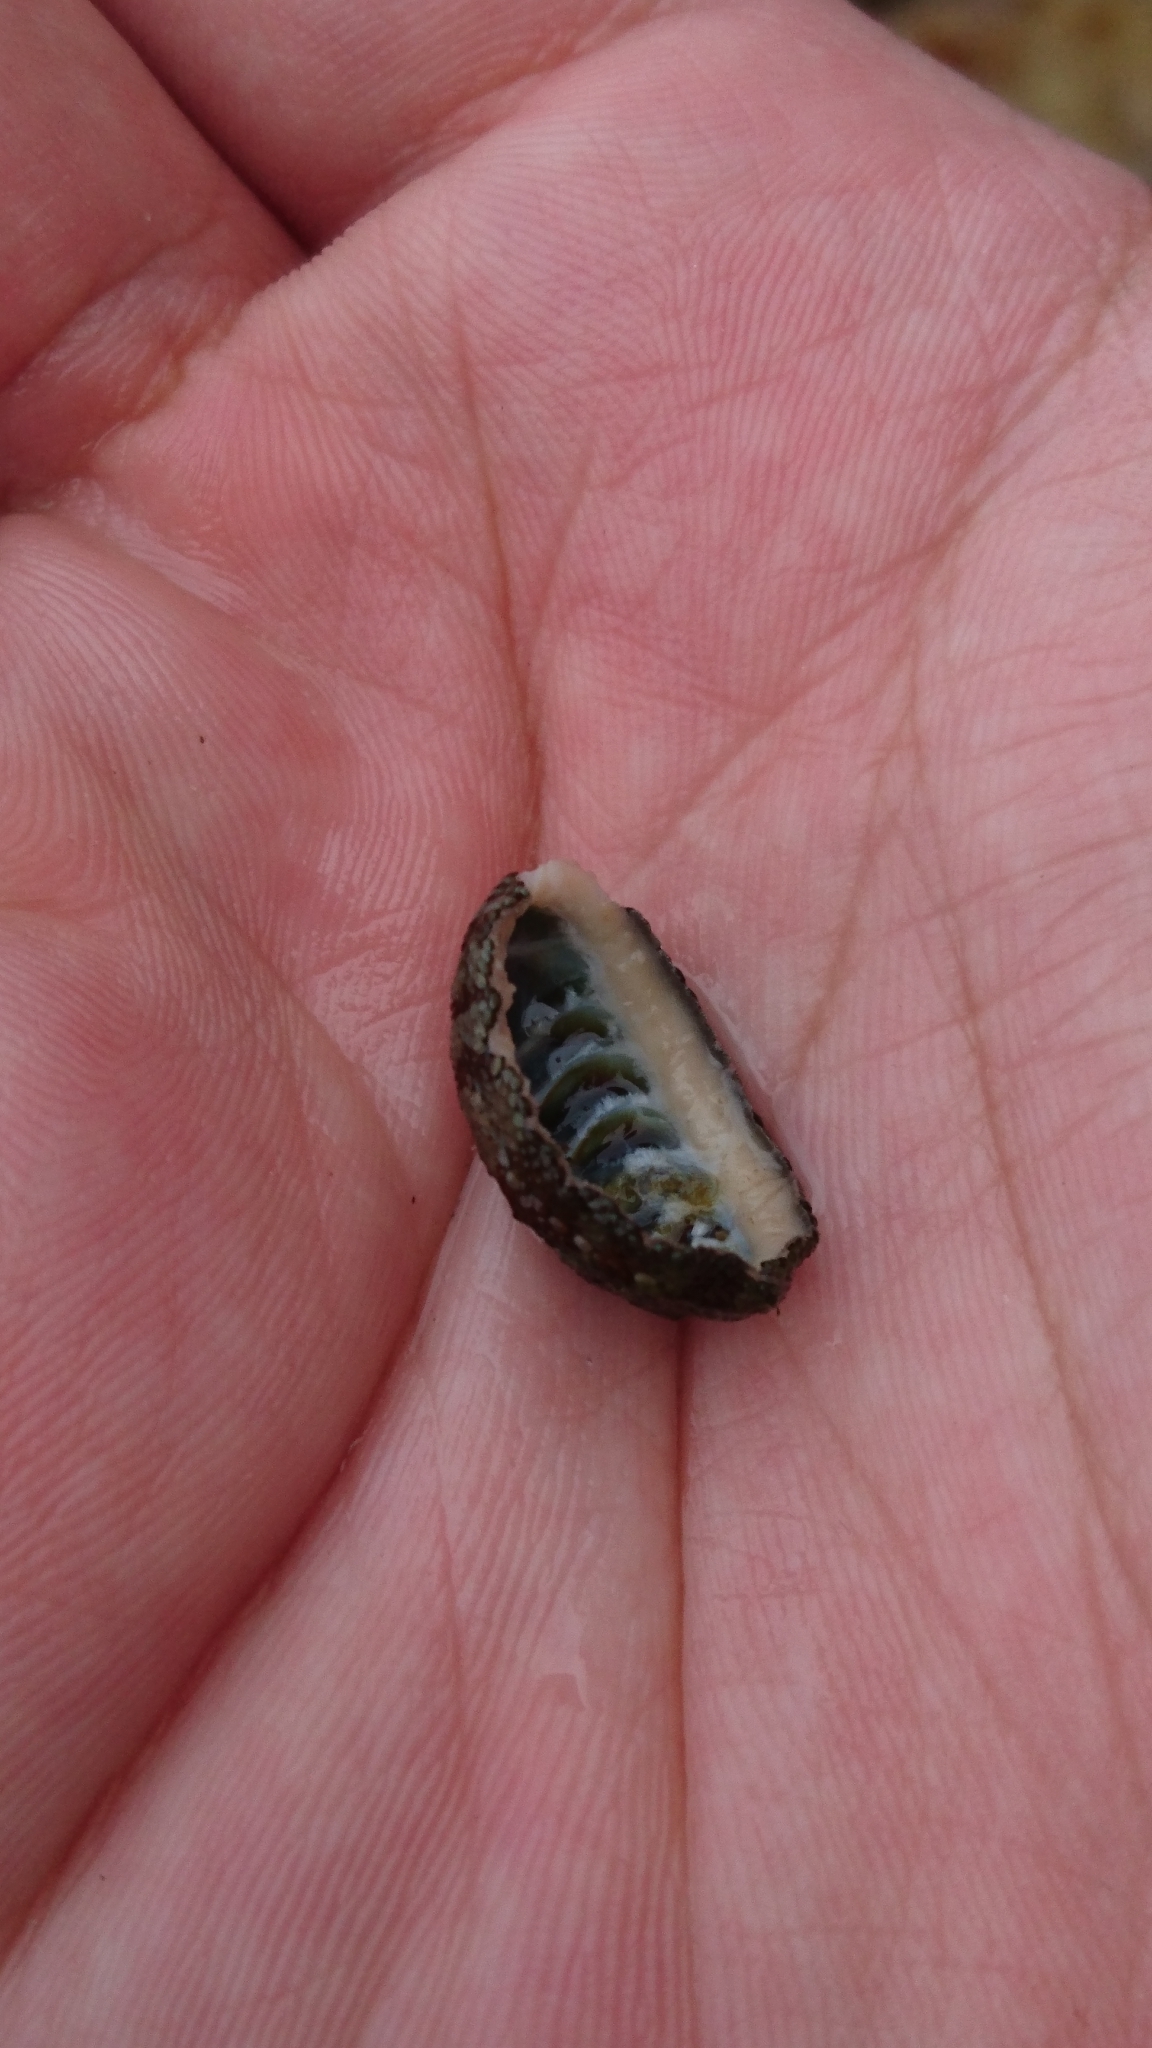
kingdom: Animalia
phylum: Mollusca
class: Polyplacophora
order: Chitonida
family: Chitonidae
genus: Sypharochiton
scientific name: Sypharochiton pelliserpentis
